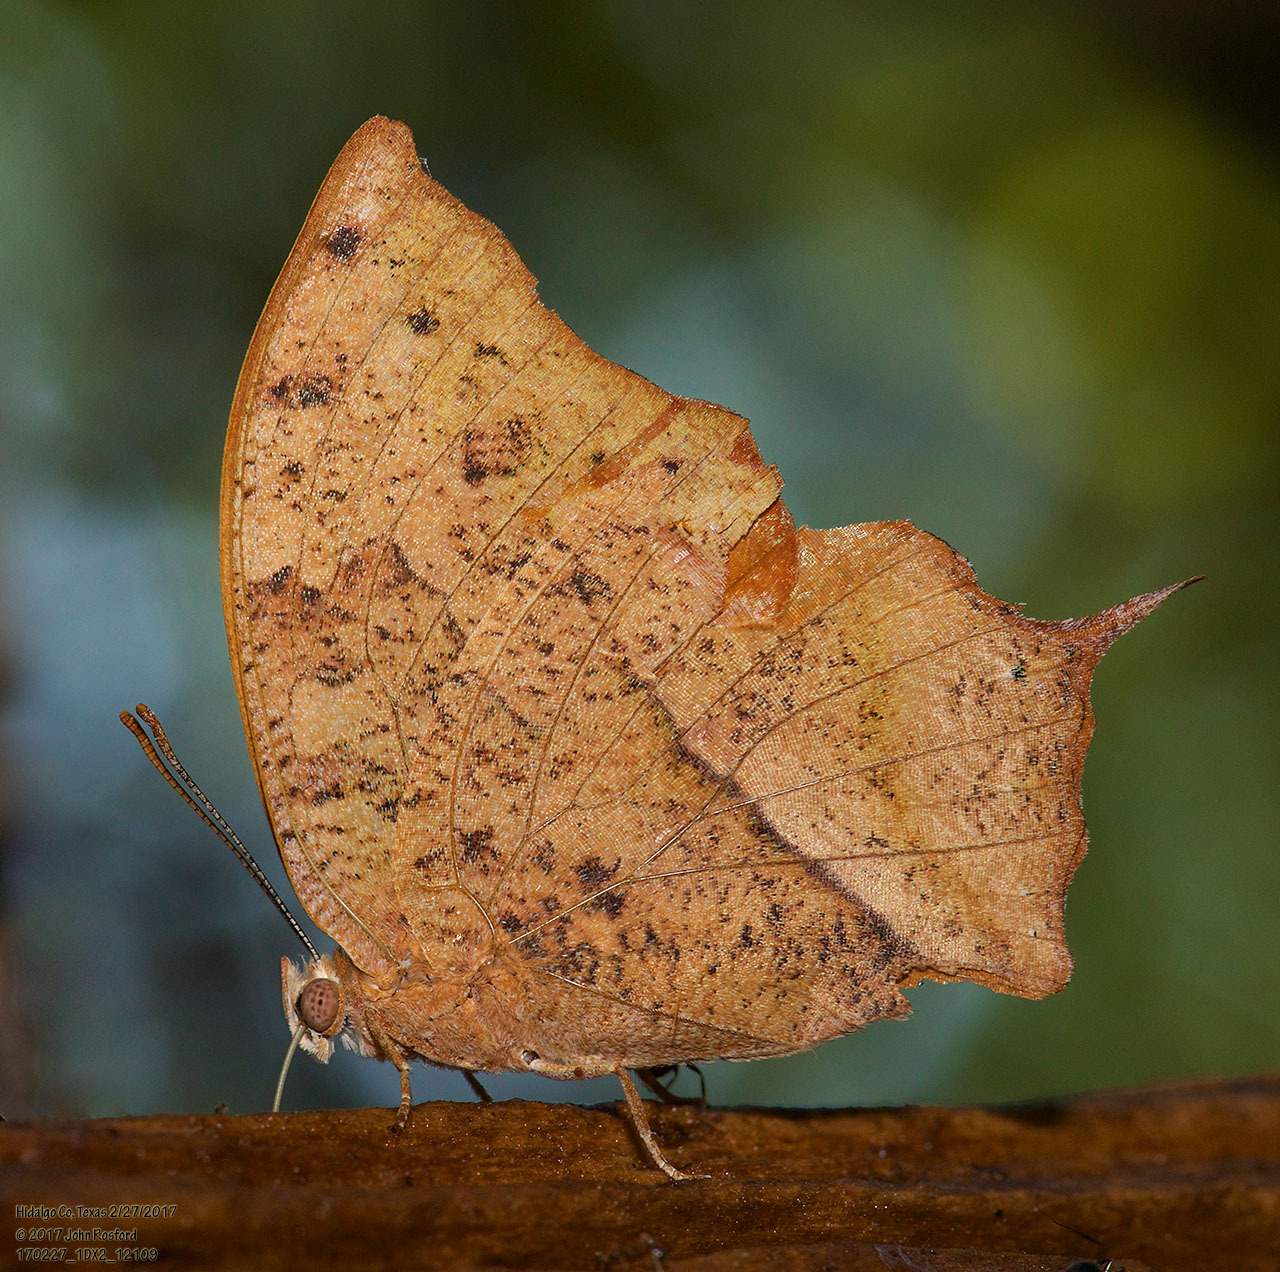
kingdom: Animalia
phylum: Arthropoda
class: Insecta
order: Lepidoptera
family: Nymphalidae
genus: Fountainea
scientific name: Fountainea
